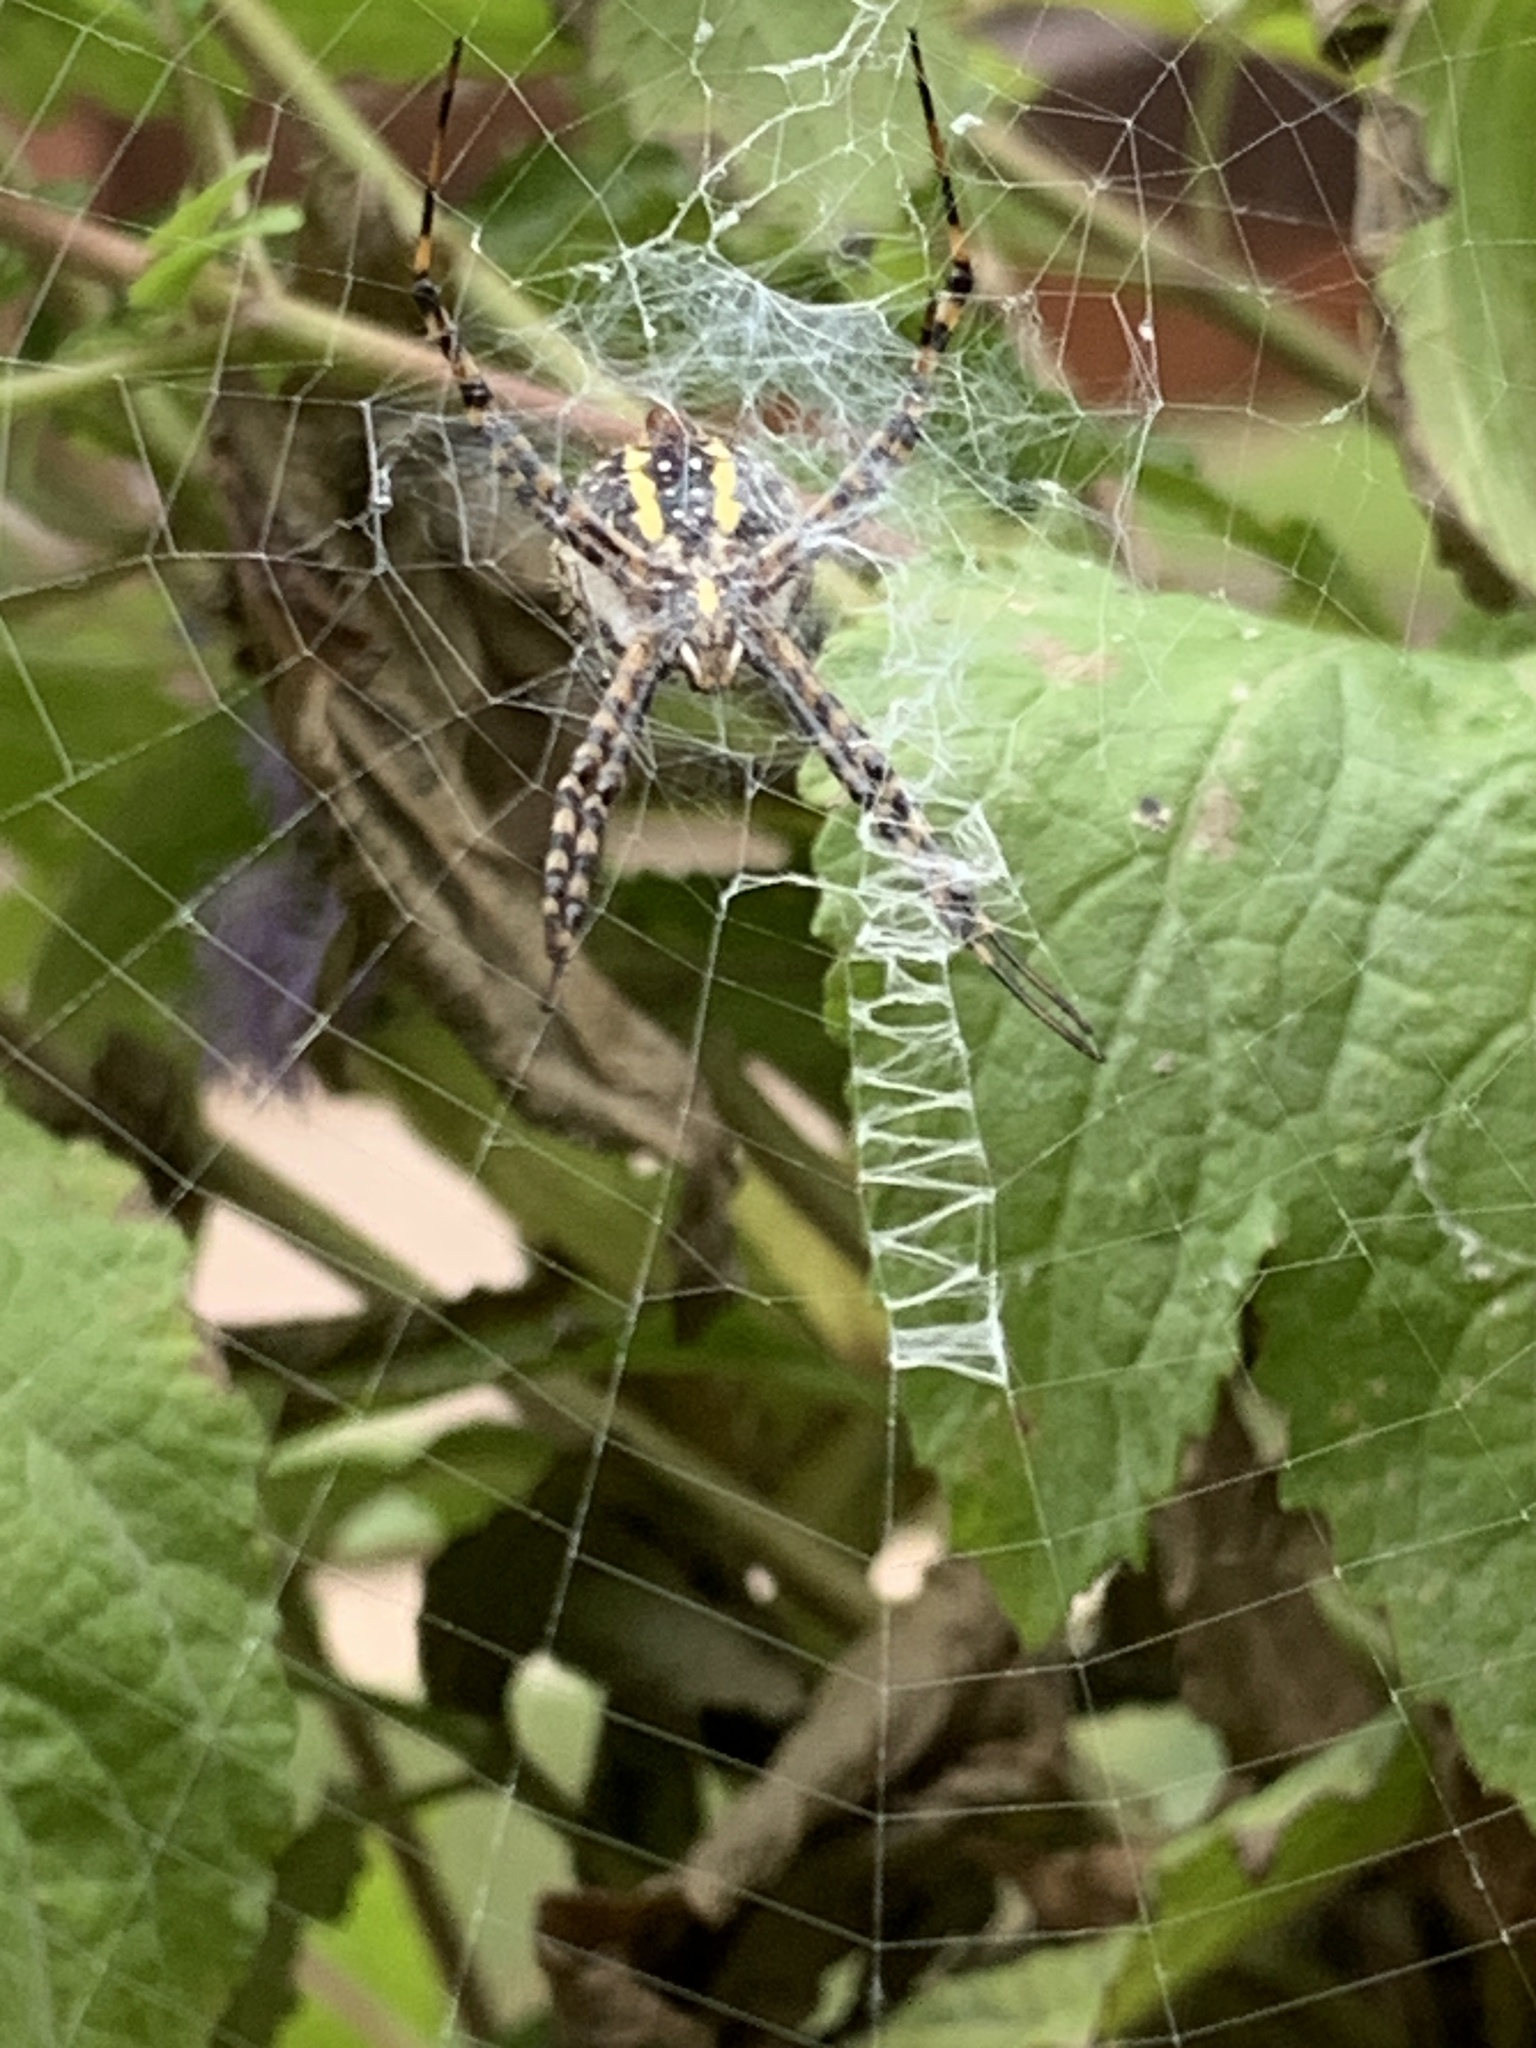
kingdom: Animalia
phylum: Arthropoda
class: Arachnida
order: Araneae
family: Araneidae
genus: Argiope
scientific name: Argiope trifasciata
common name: Banded garden spider
